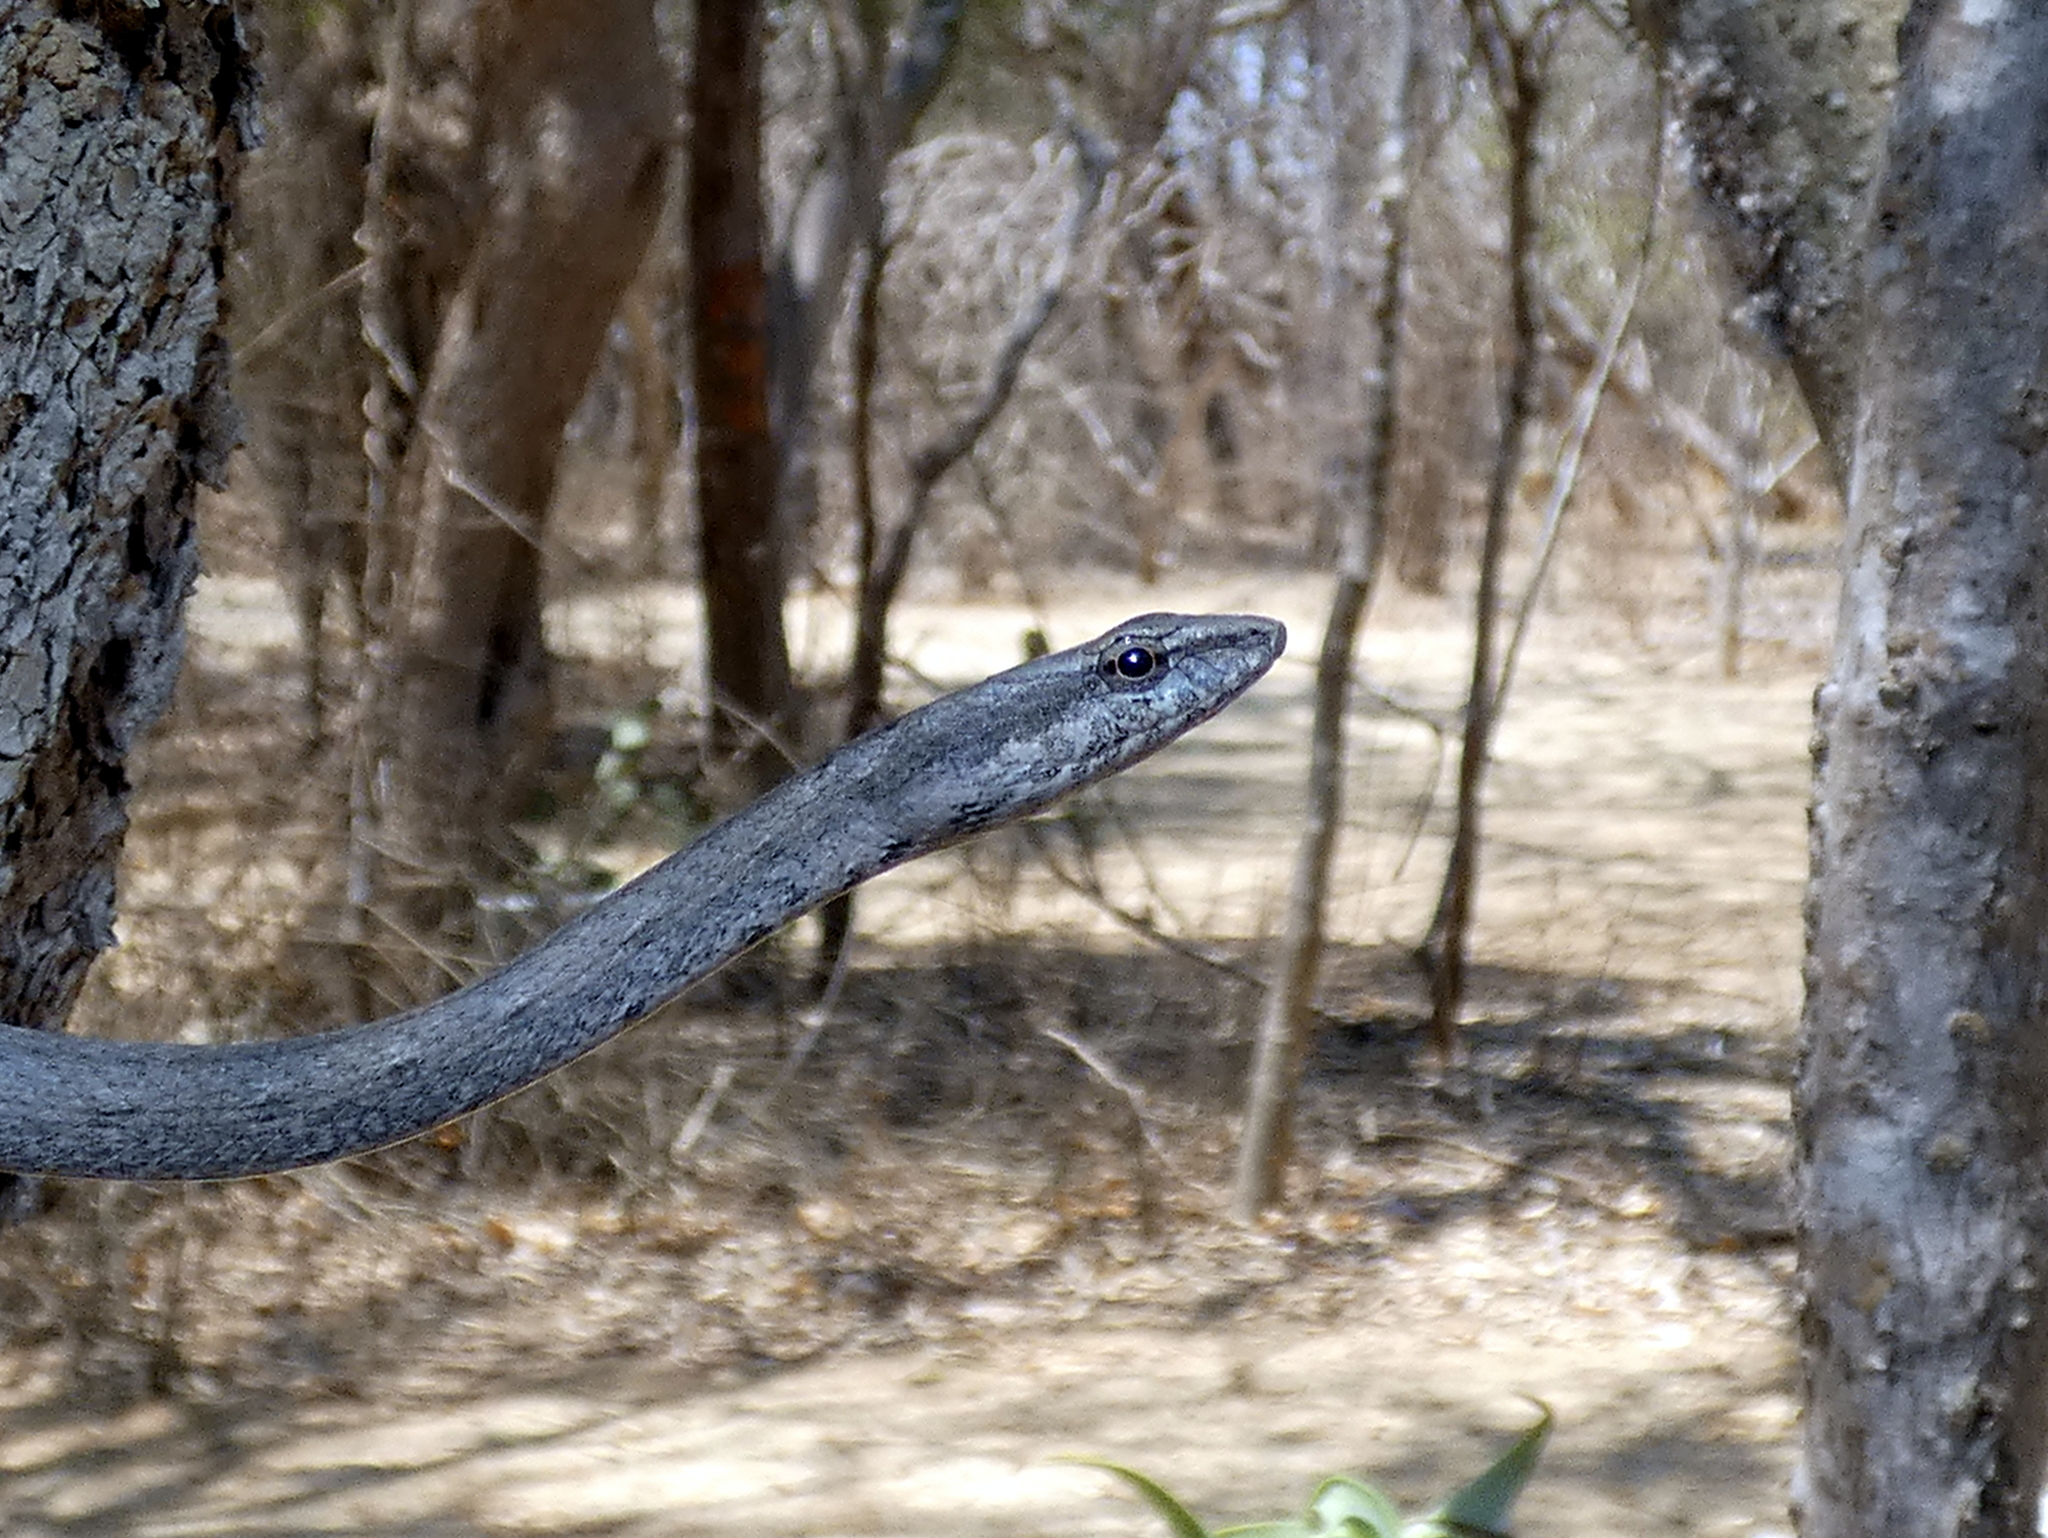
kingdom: Animalia
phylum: Chordata
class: Squamata
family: Psammophiidae
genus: Mimophis
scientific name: Mimophis mahfalensis
